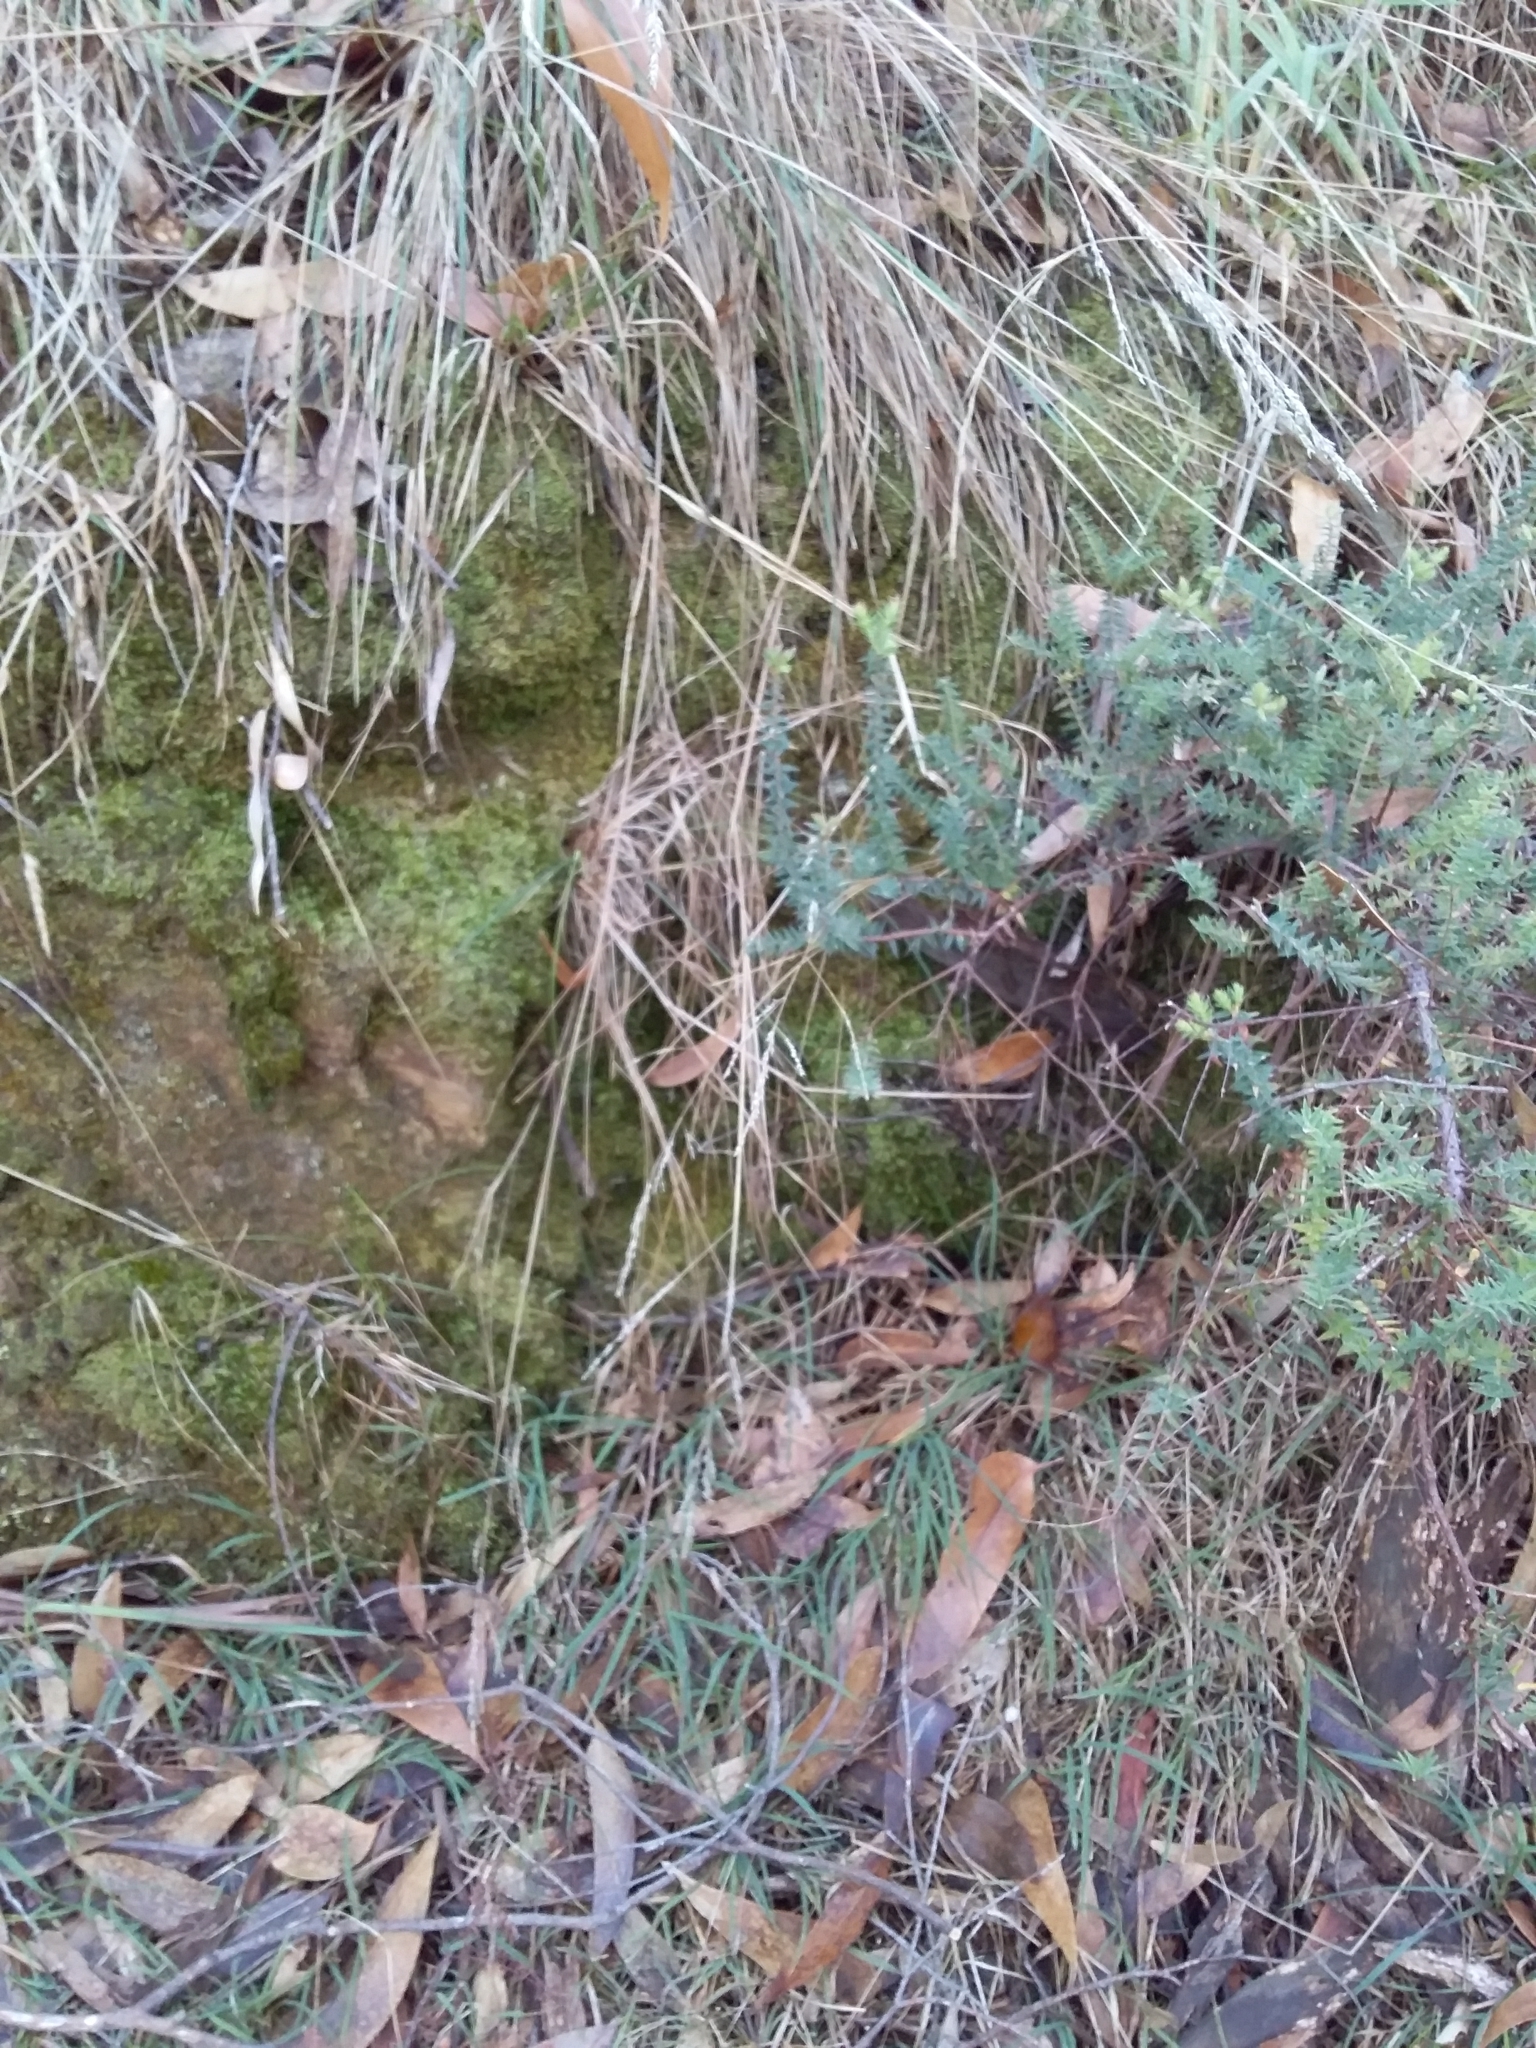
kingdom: Plantae
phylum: Bryophyta
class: Bryopsida
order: Hypnodendrales
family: Racopilaceae
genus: Racopilum
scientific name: Racopilum cuspidigerum
